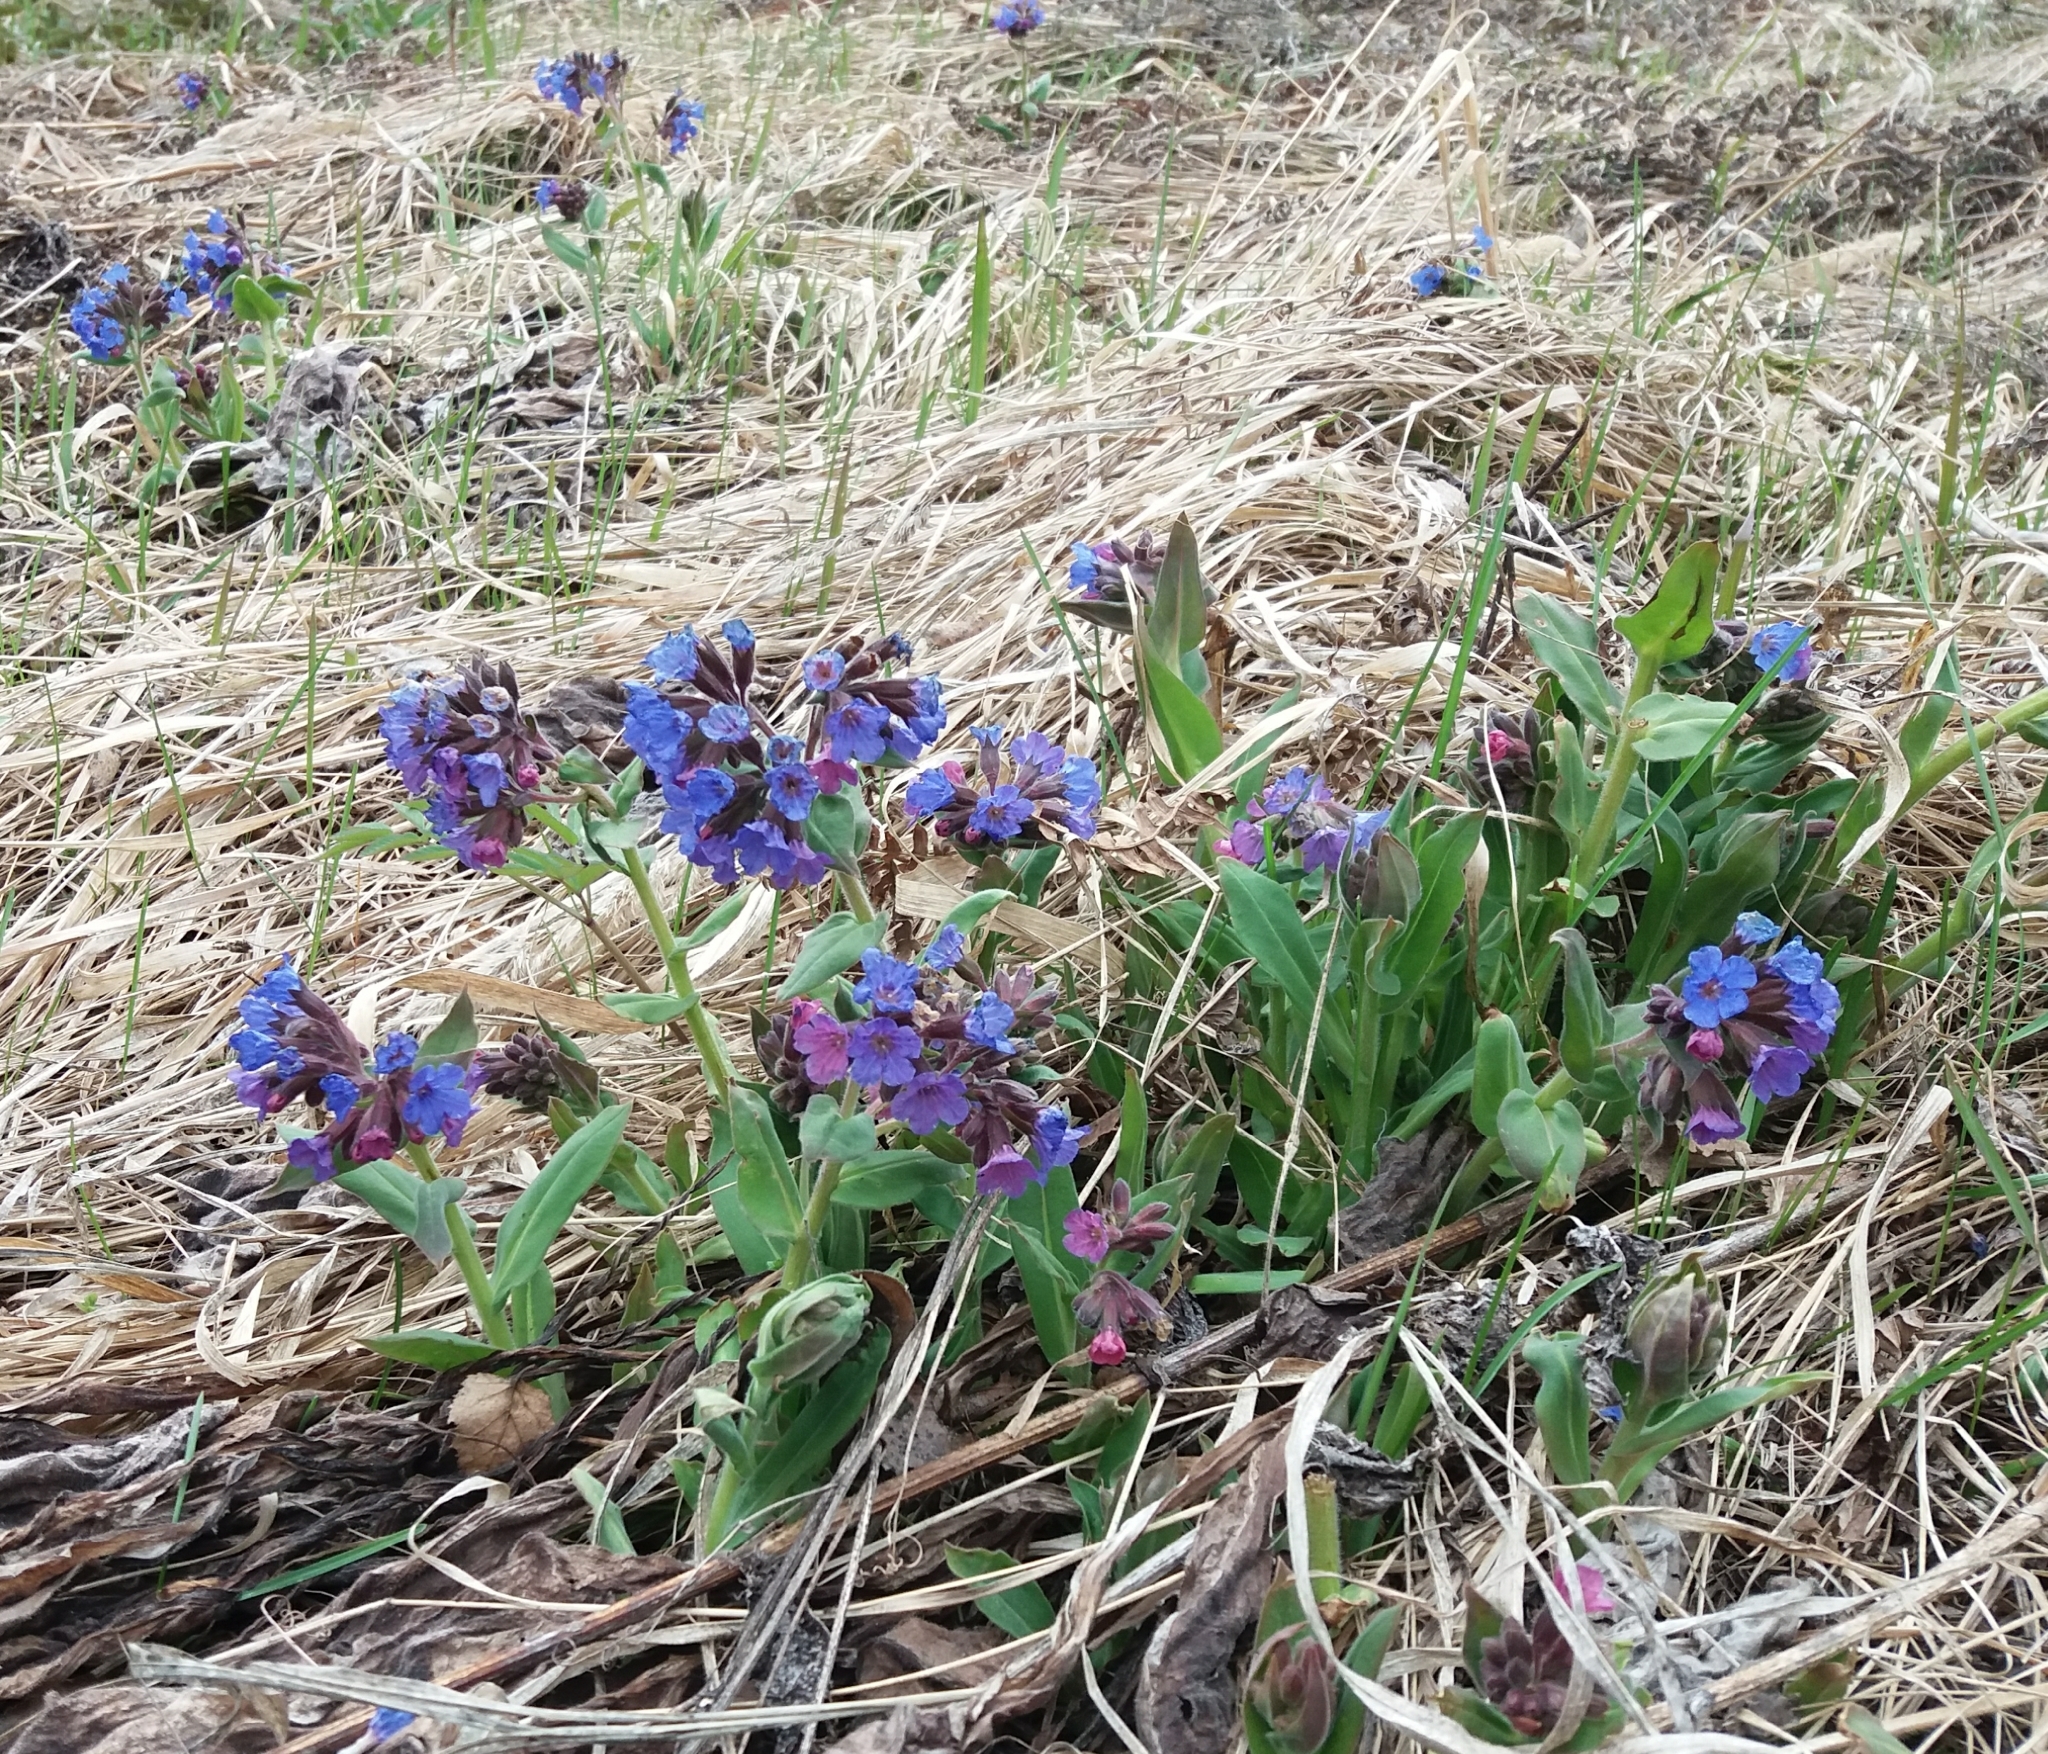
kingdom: Plantae
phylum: Tracheophyta
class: Magnoliopsida
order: Boraginales
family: Boraginaceae
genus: Pulmonaria
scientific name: Pulmonaria mollis
